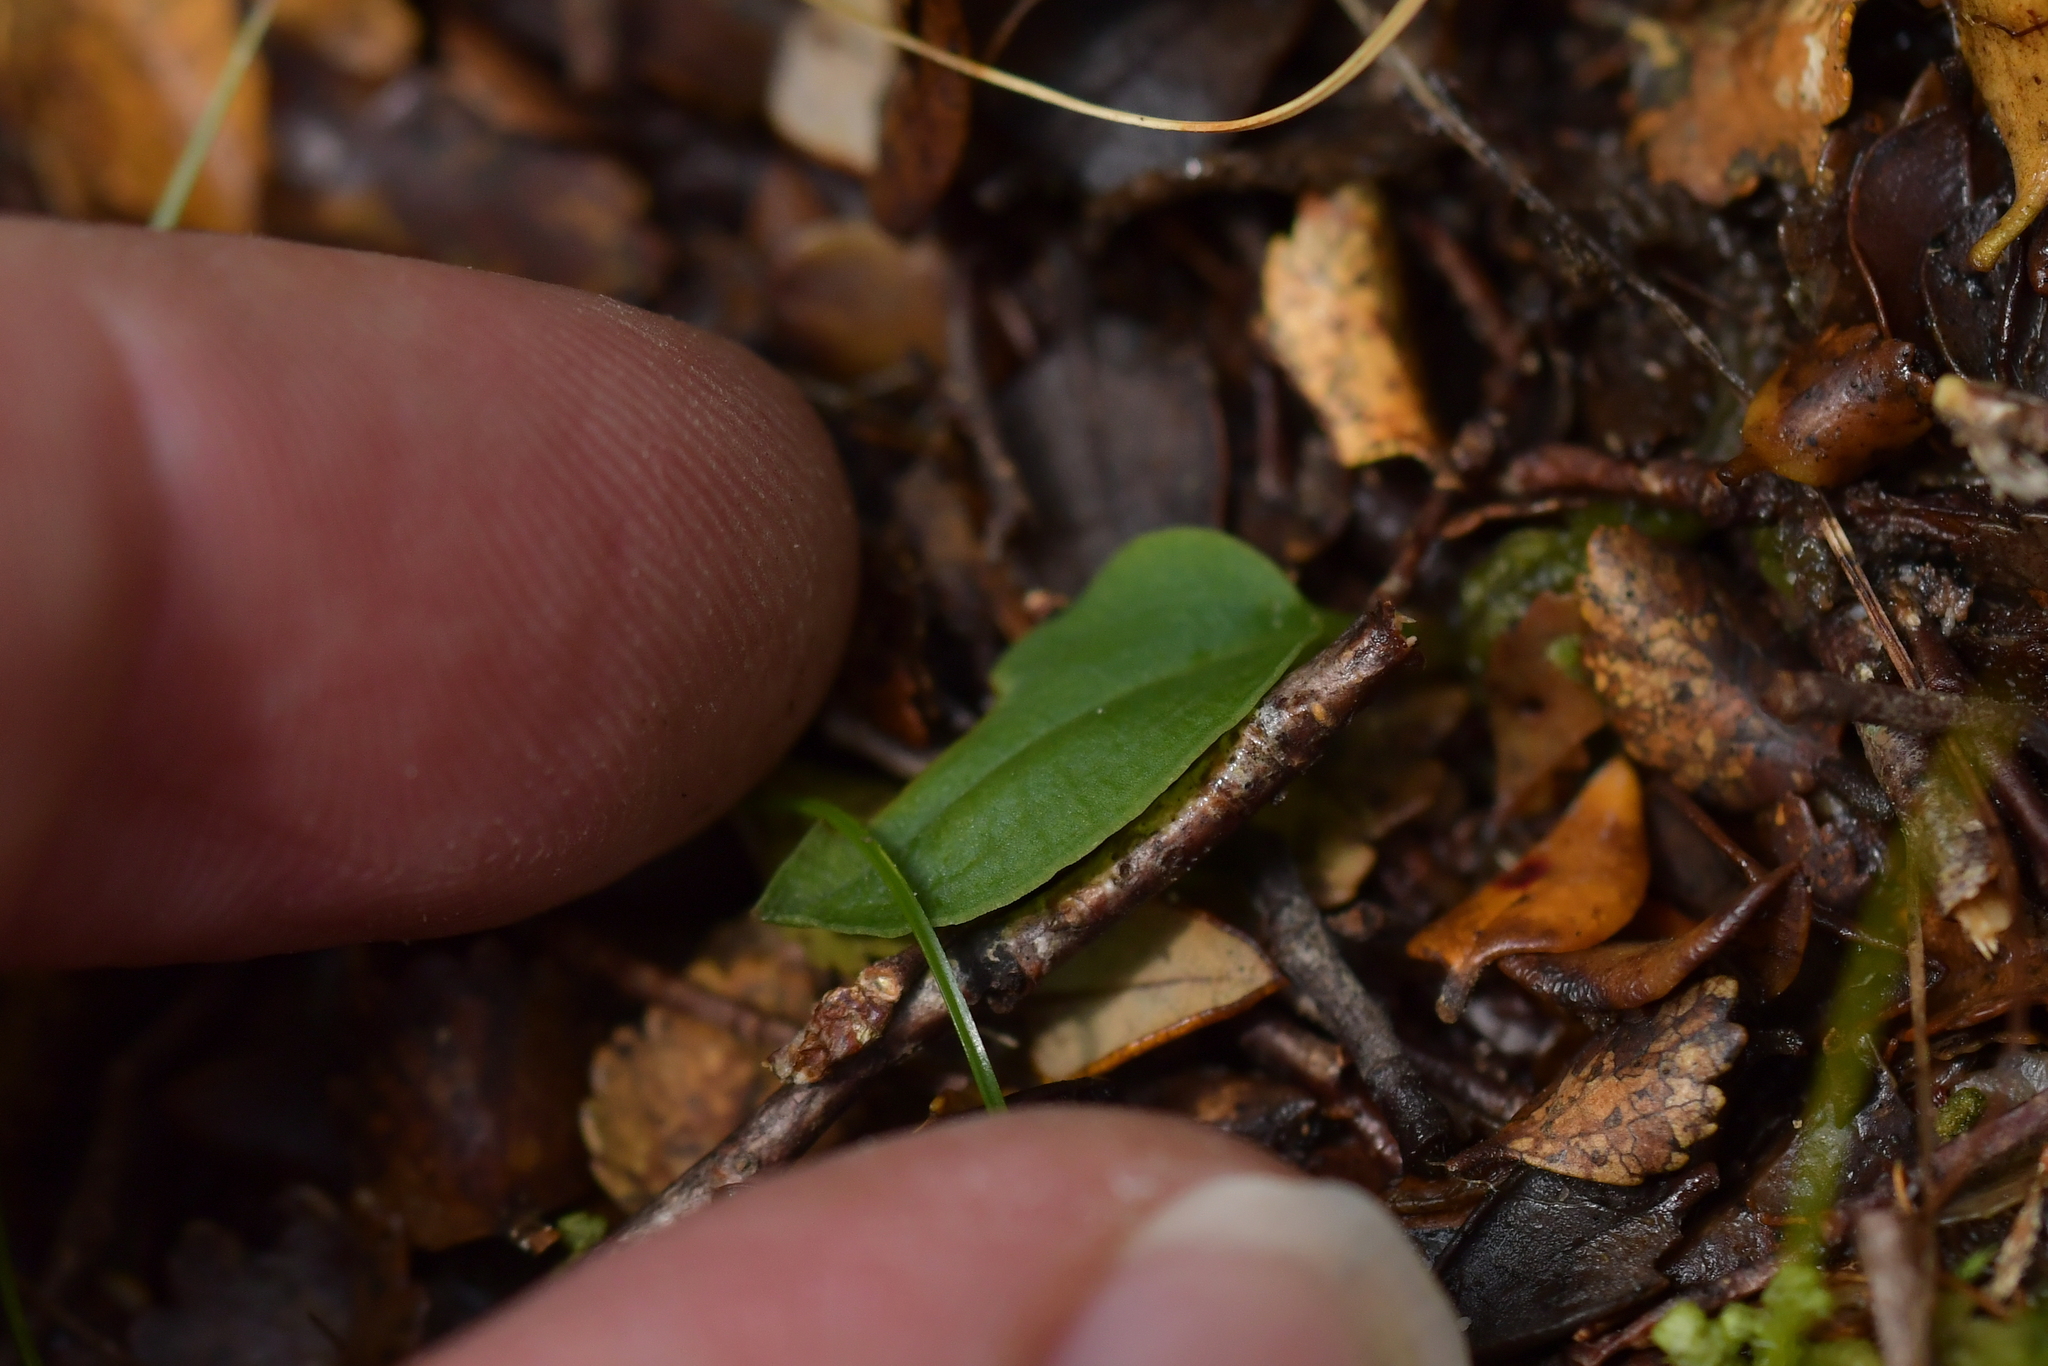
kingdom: Plantae
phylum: Tracheophyta
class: Liliopsida
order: Asparagales
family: Orchidaceae
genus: Adenochilus
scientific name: Adenochilus gracilis
